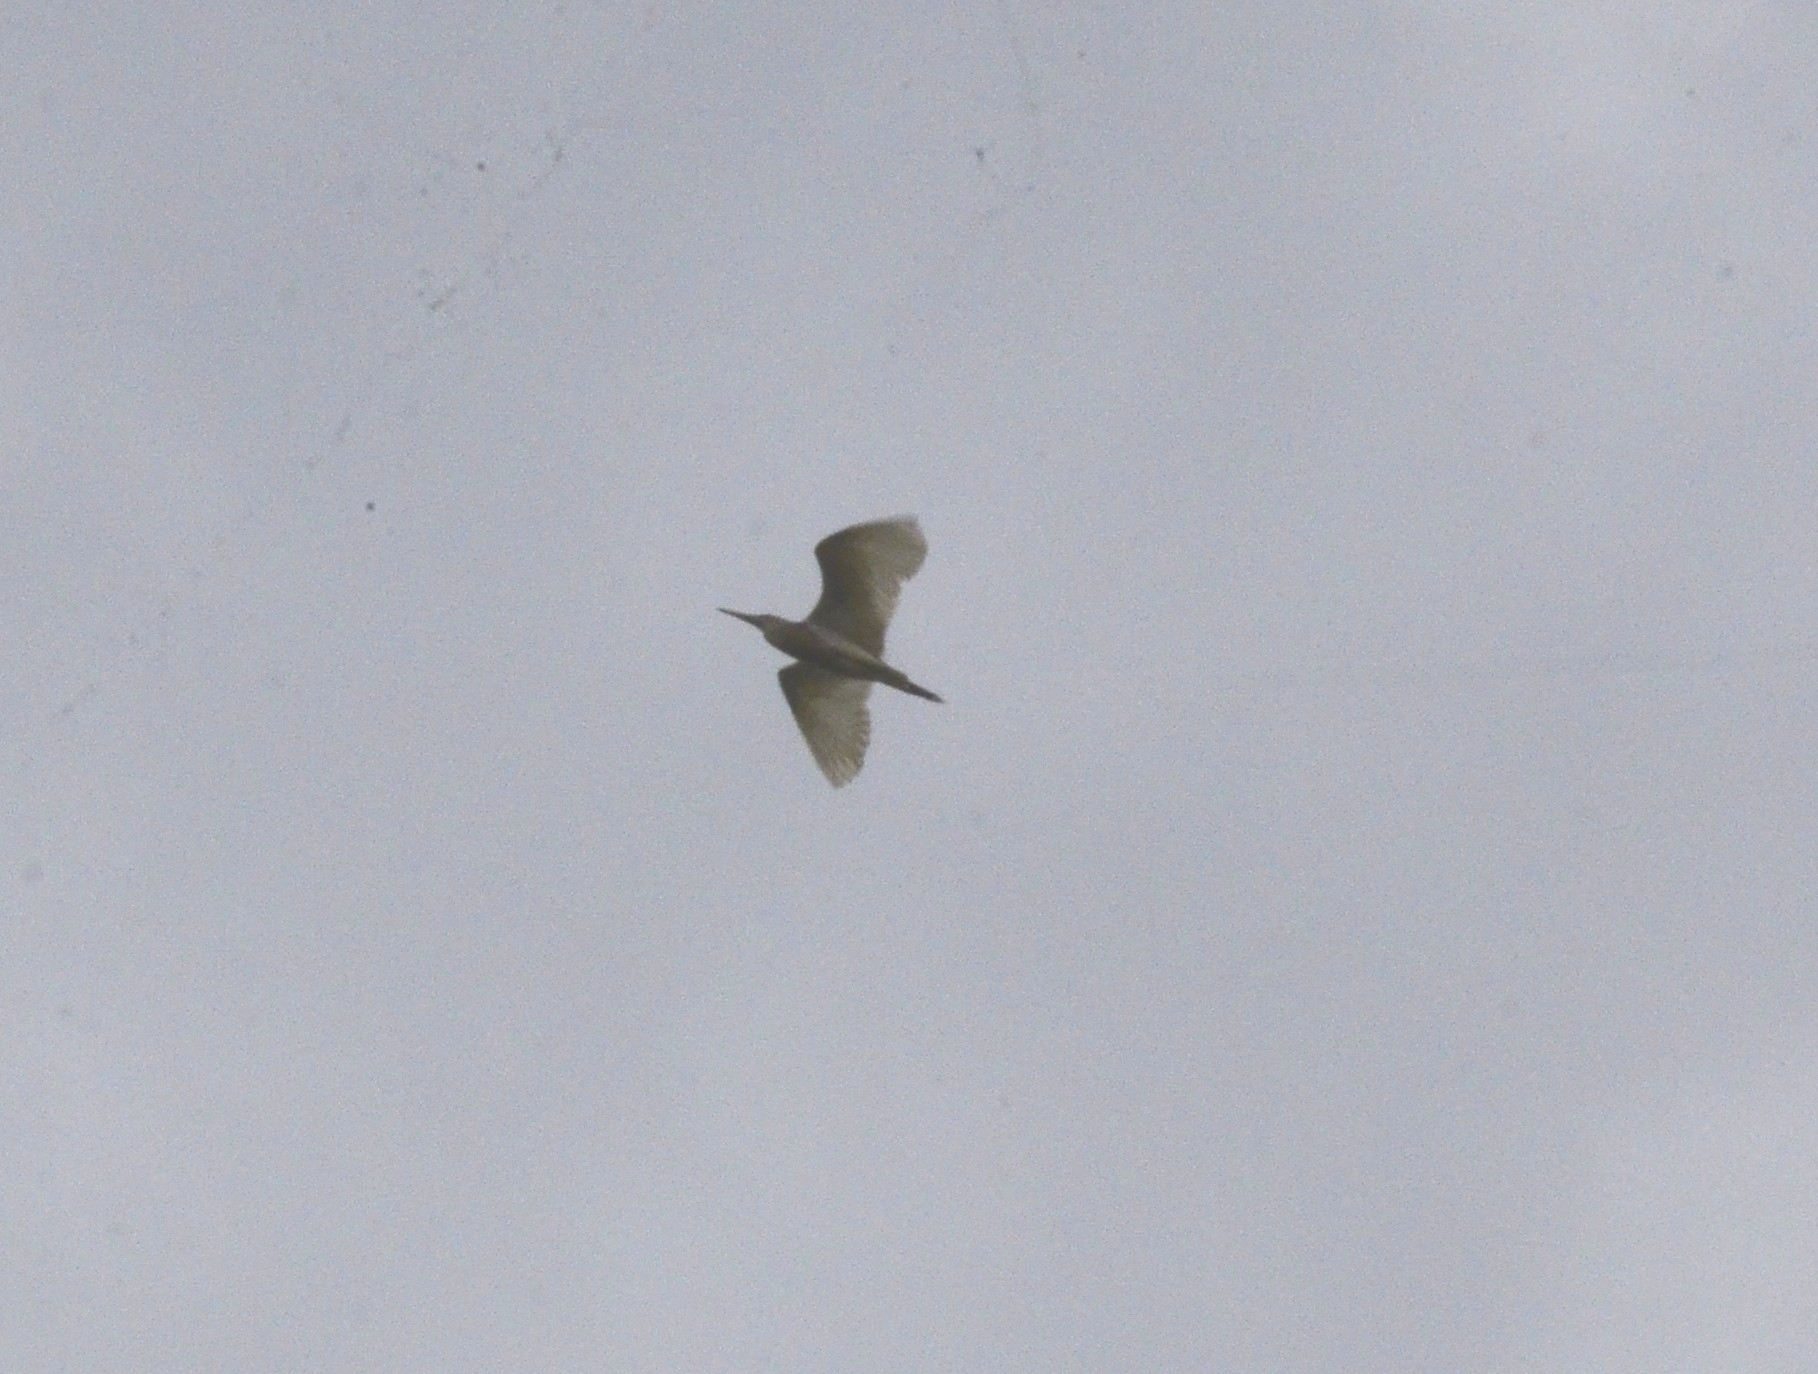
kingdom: Animalia
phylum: Chordata
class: Aves
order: Pelecaniformes
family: Ardeidae
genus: Ardeola
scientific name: Ardeola grayii
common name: Indian pond heron
